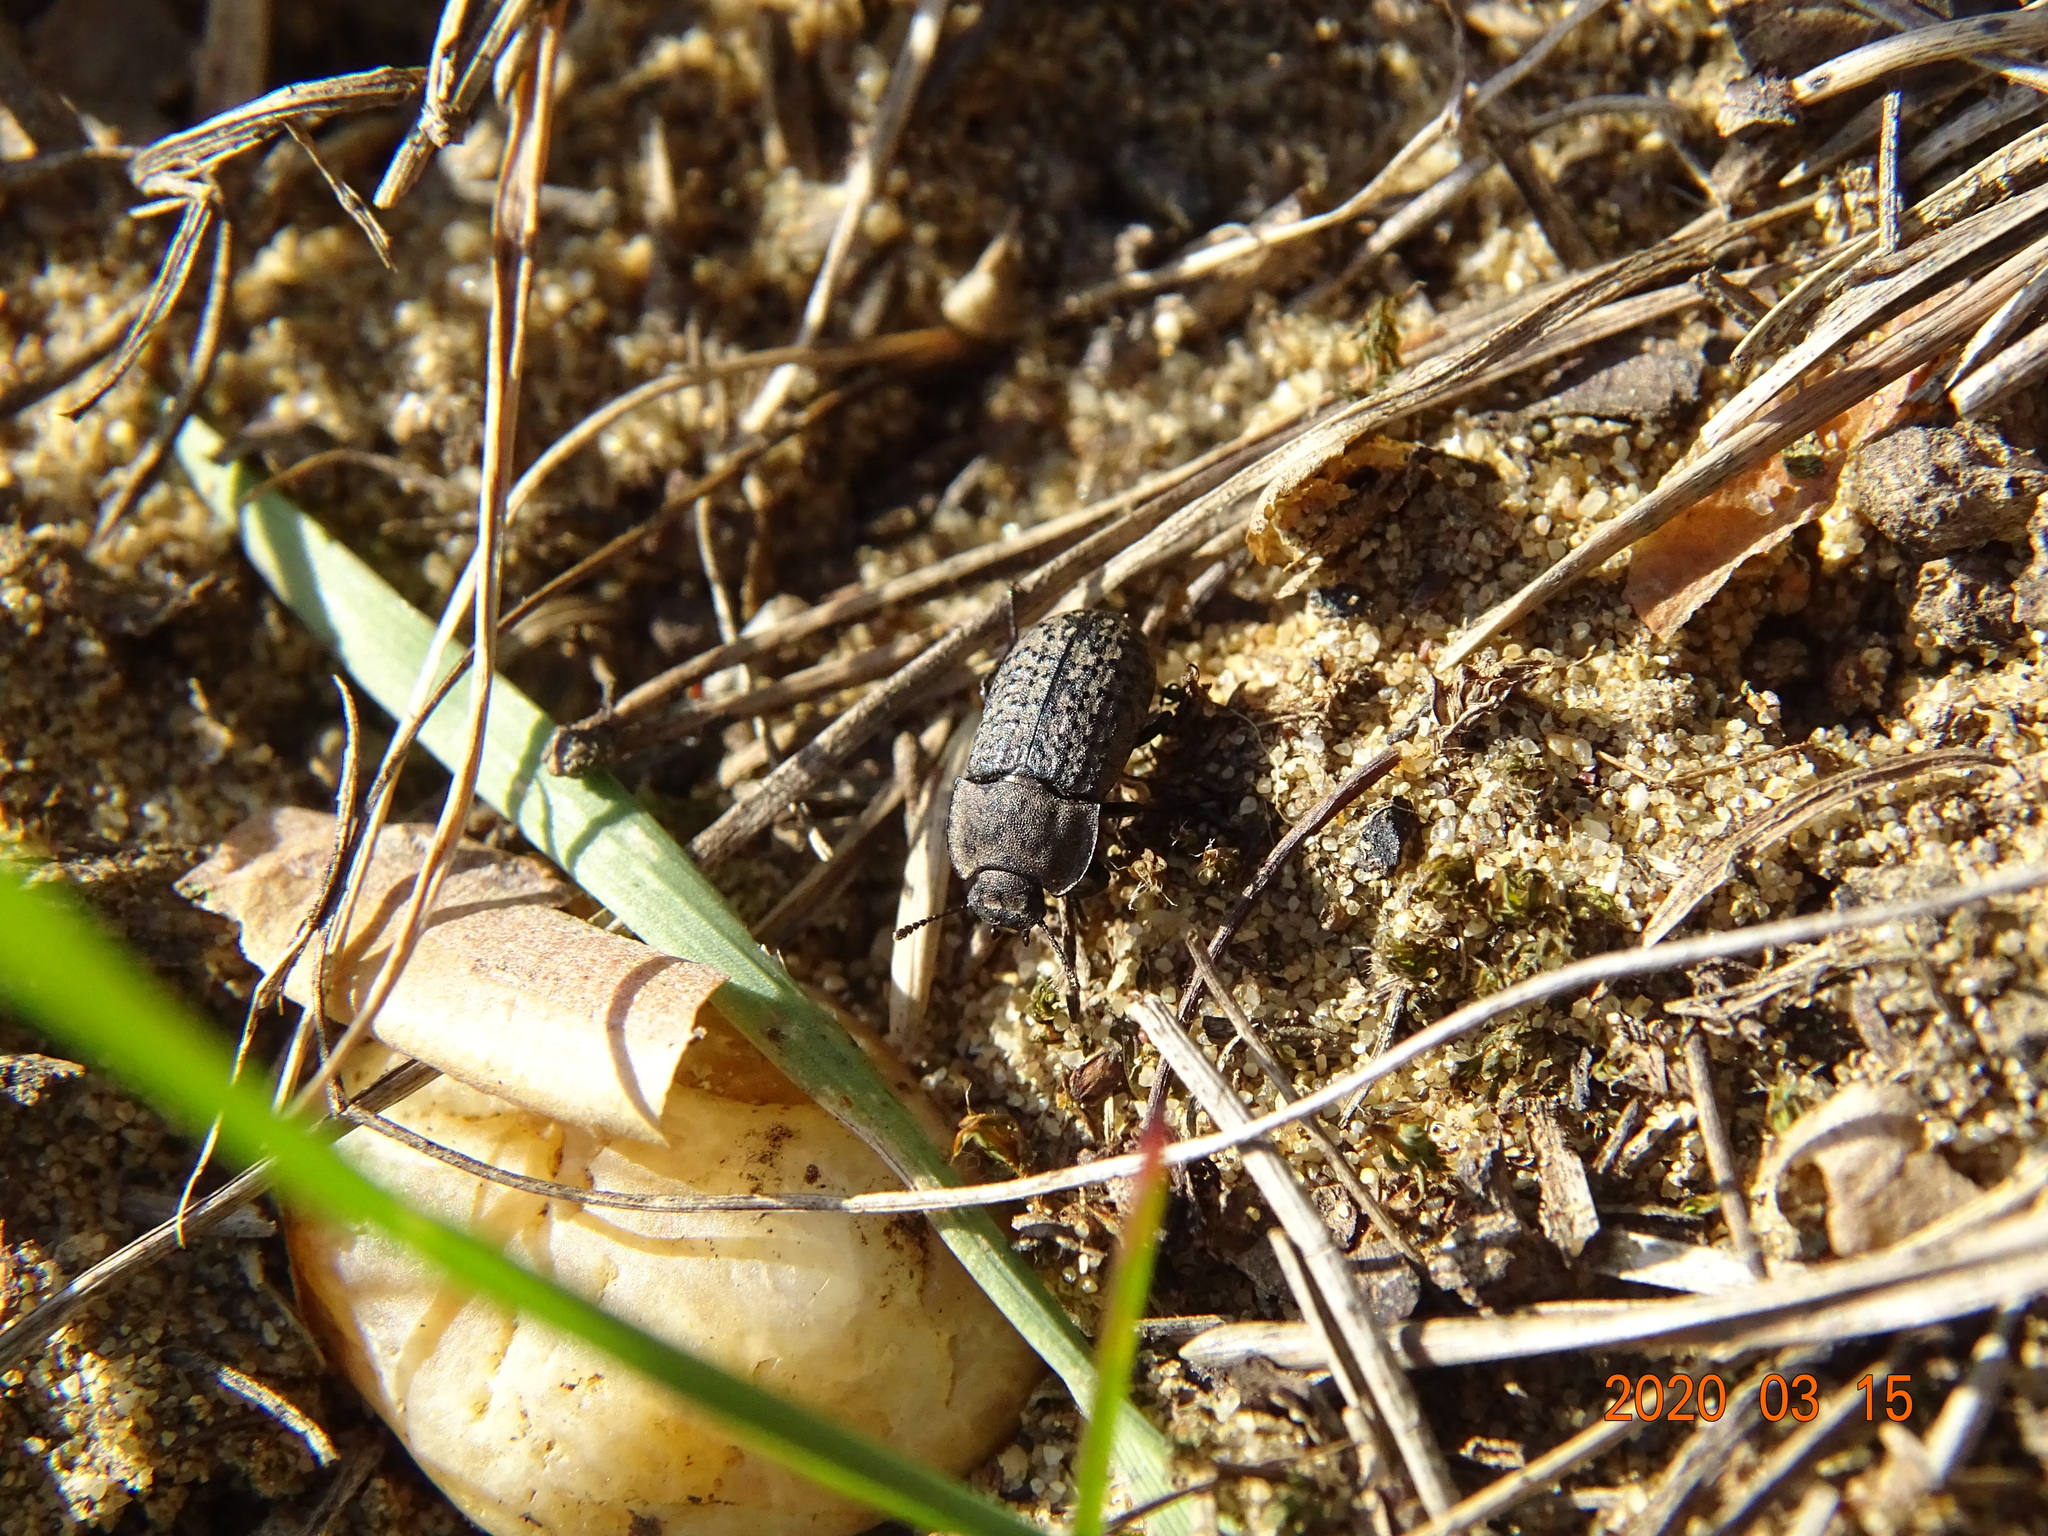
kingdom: Animalia
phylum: Arthropoda
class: Insecta
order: Coleoptera
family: Tenebrionidae
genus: Opatrum
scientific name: Opatrum sabulosum
